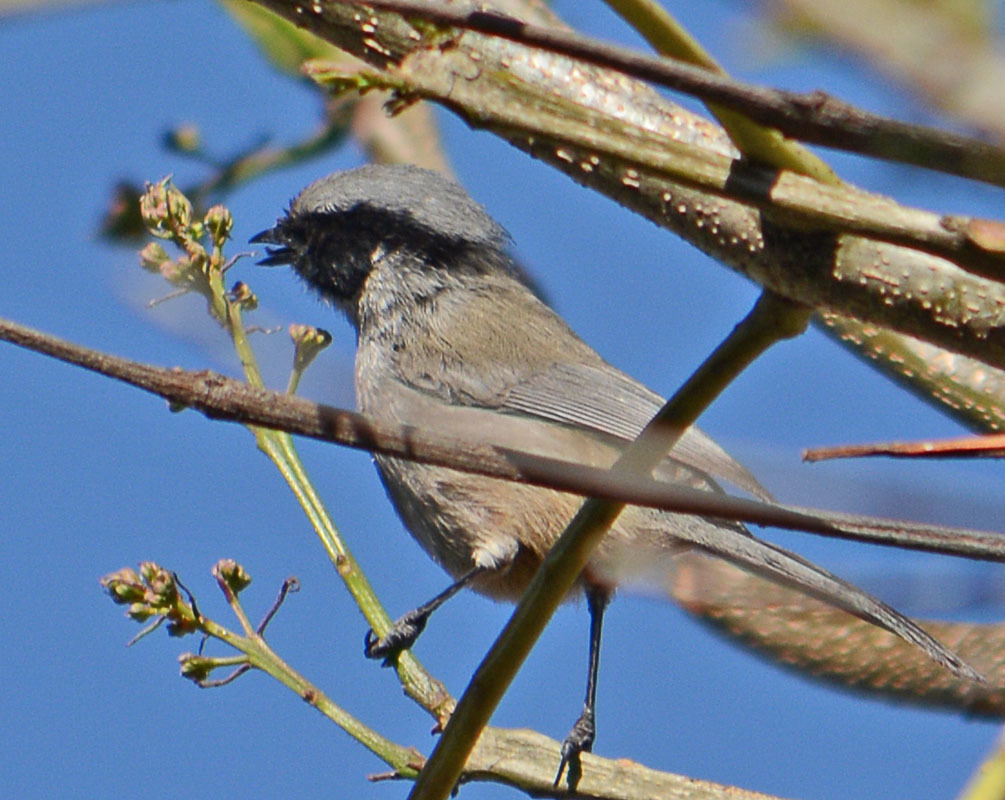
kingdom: Animalia
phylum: Chordata
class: Aves
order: Passeriformes
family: Aegithalidae
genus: Psaltriparus
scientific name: Psaltriparus minimus
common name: American bushtit
